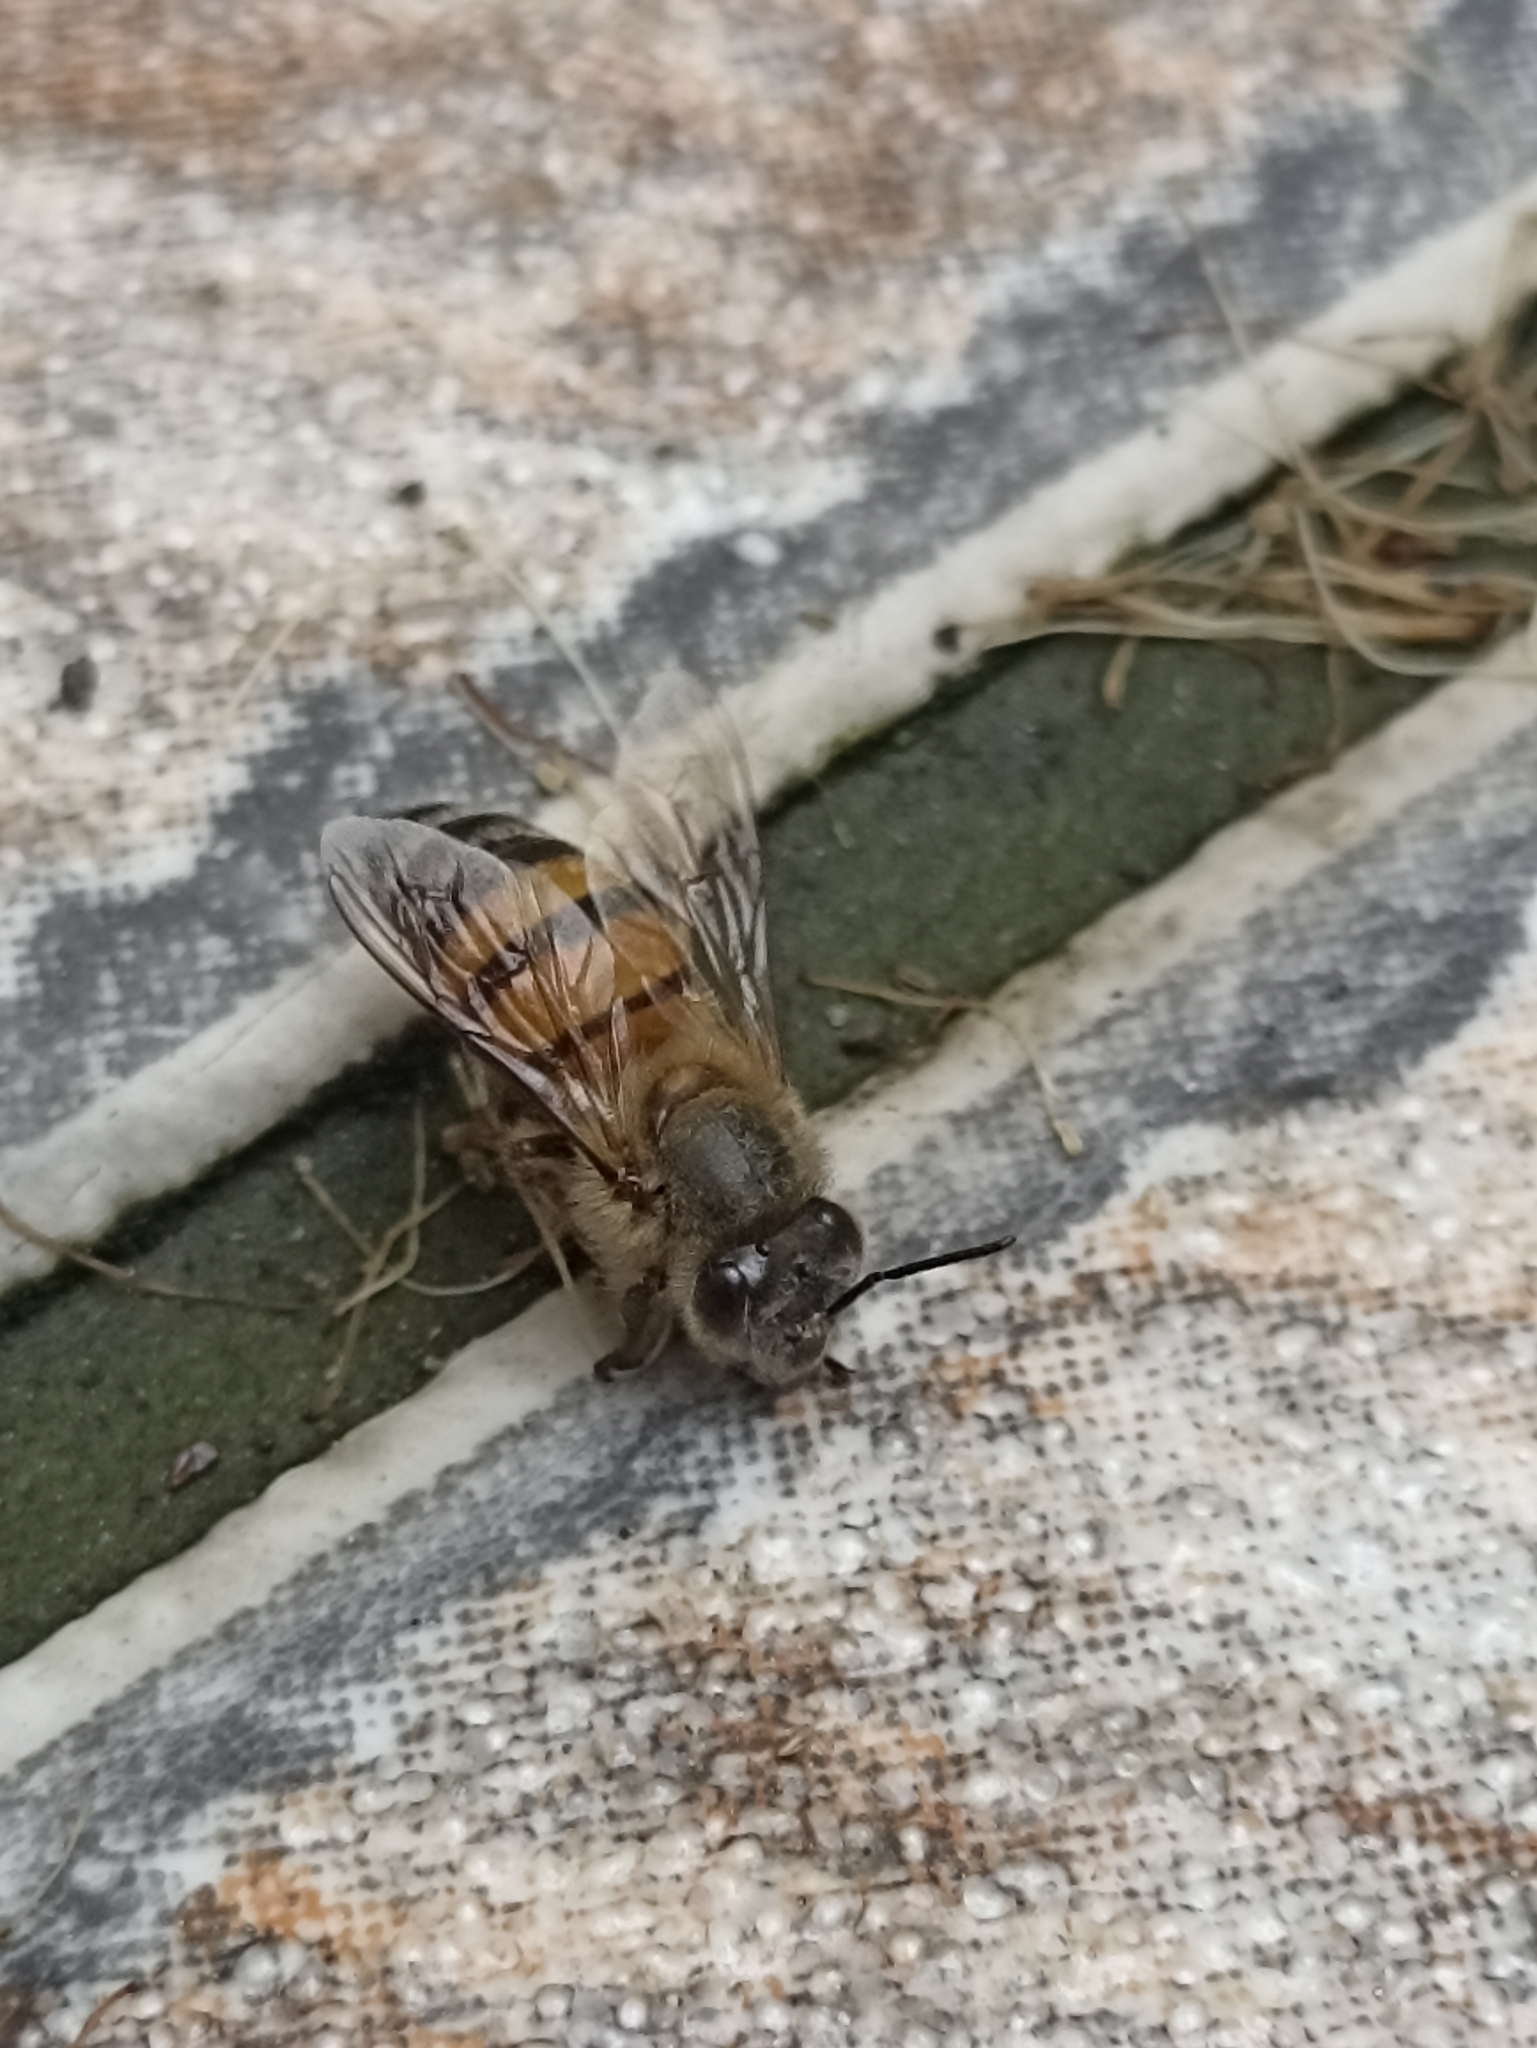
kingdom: Animalia
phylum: Arthropoda
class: Insecta
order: Hymenoptera
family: Apidae
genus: Apis
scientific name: Apis mellifera
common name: Honey bee
